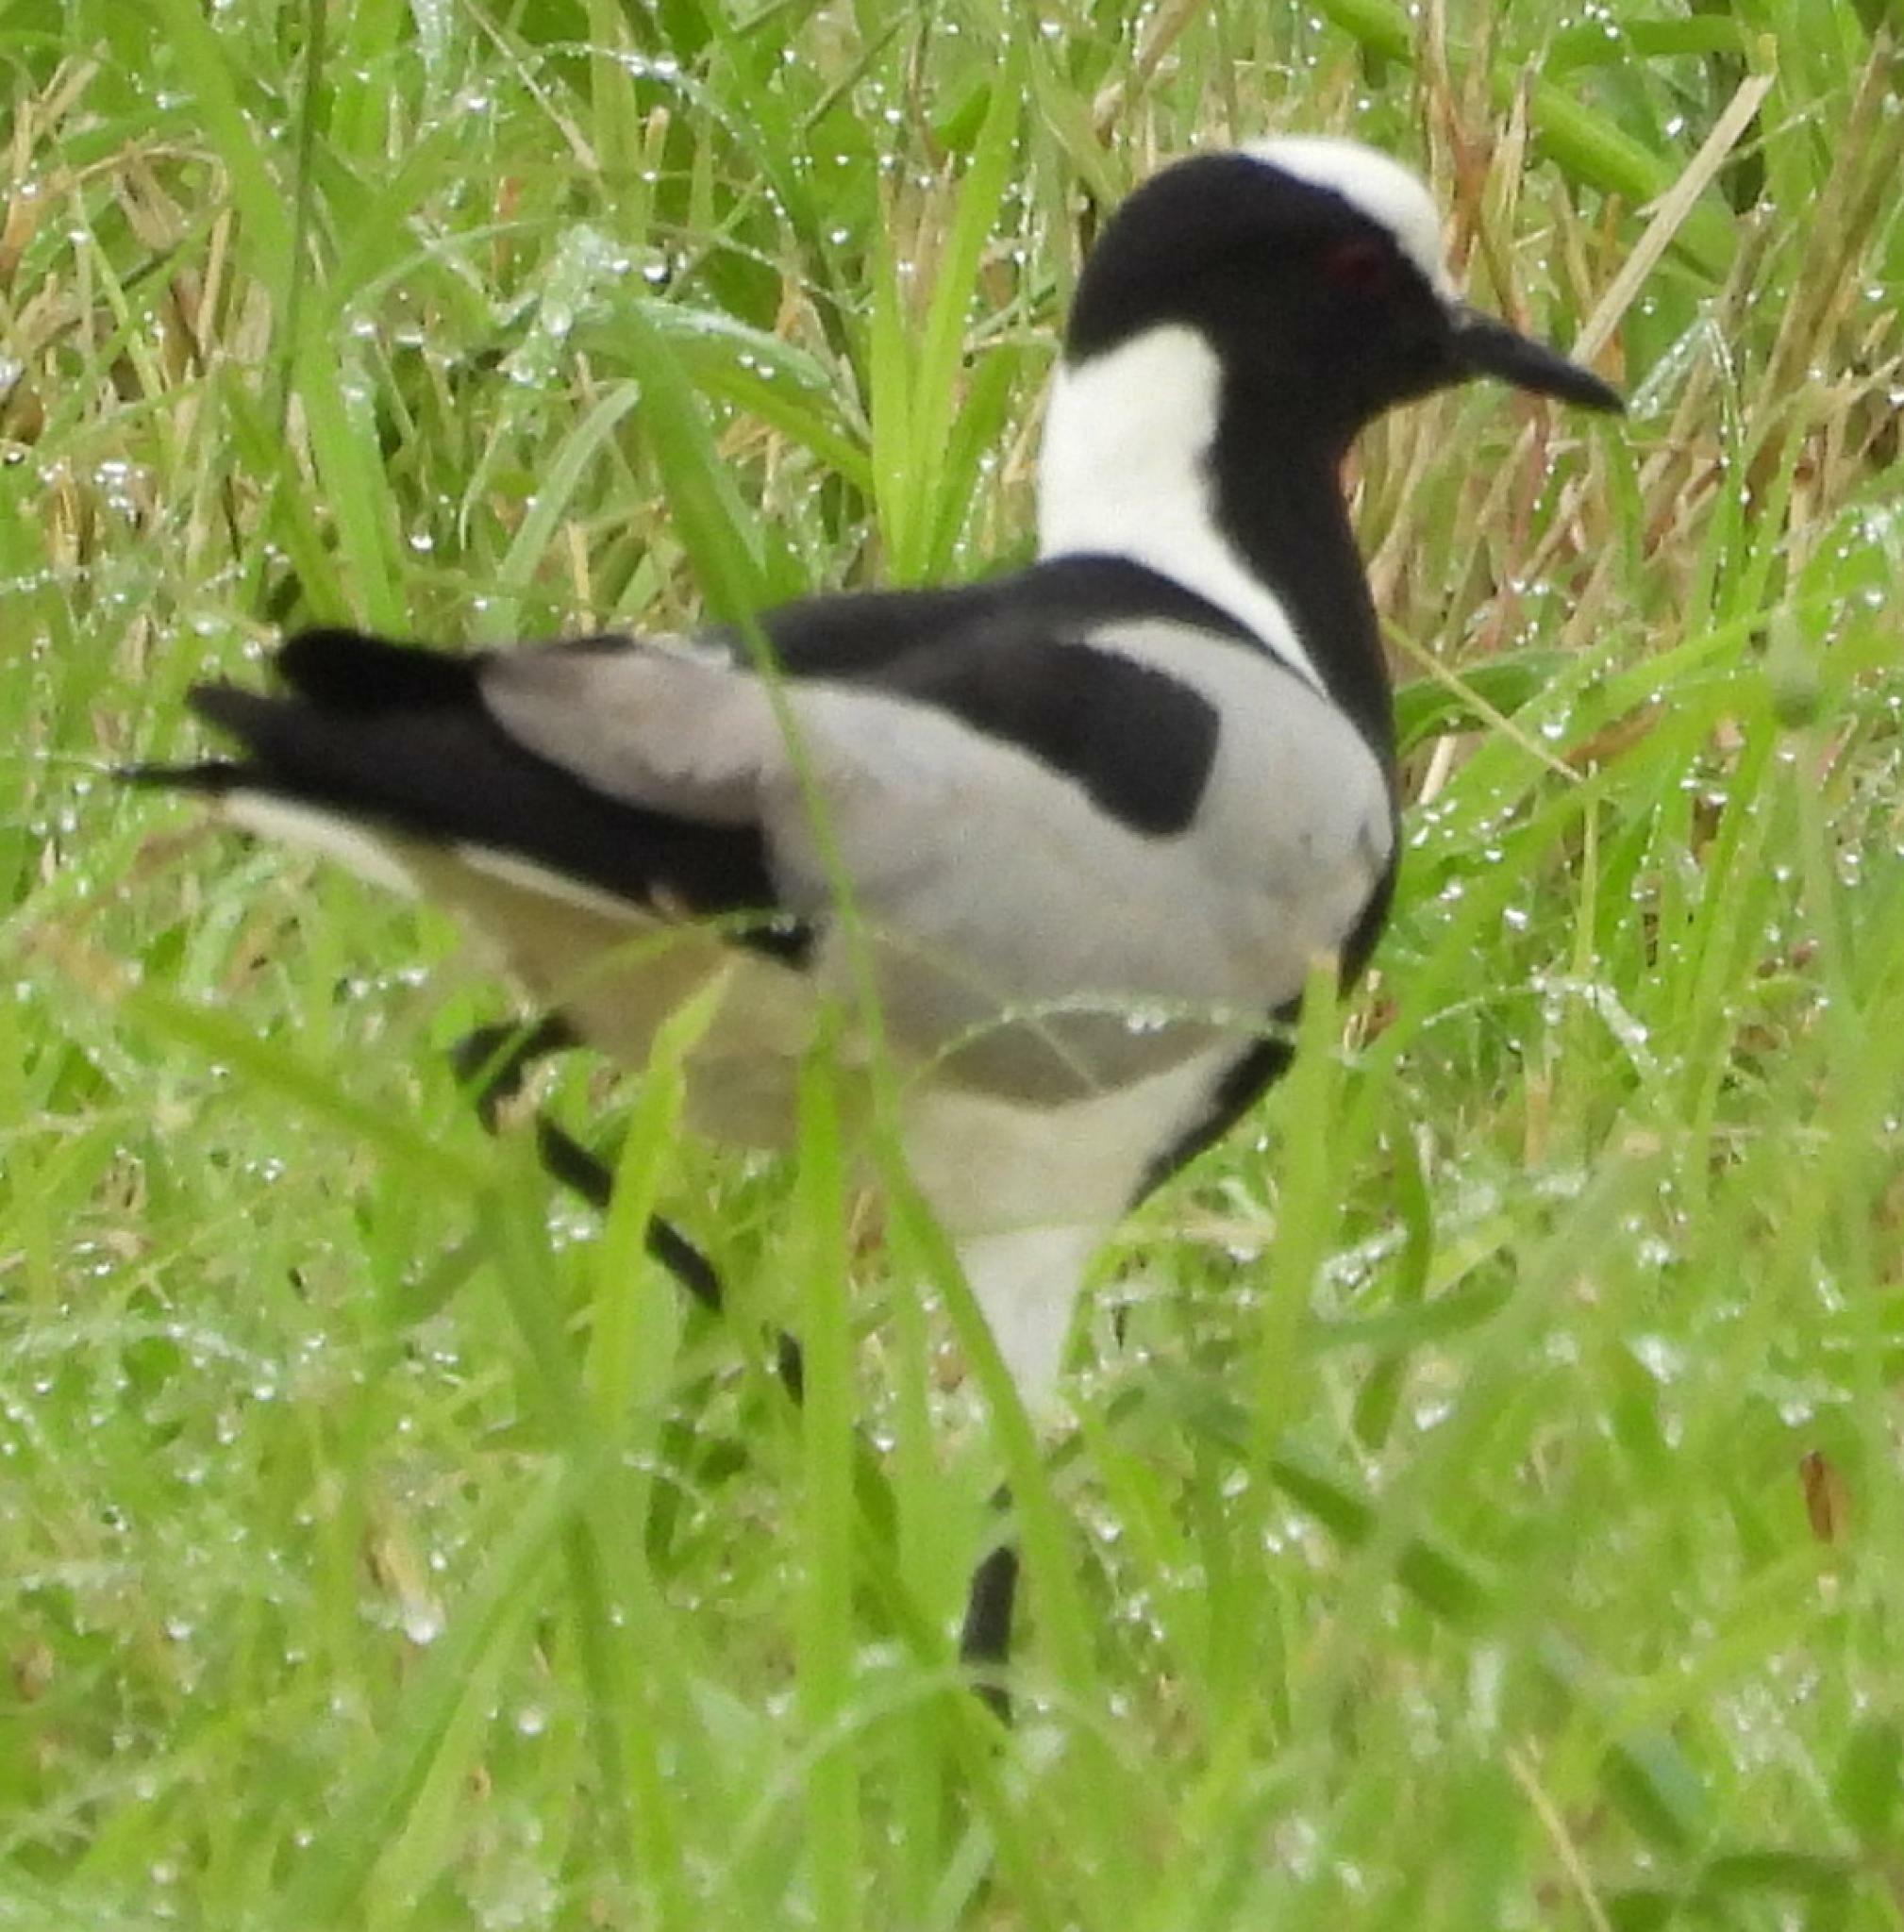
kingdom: Animalia
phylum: Chordata
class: Aves
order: Charadriiformes
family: Charadriidae
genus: Vanellus
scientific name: Vanellus armatus
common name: Blacksmith lapwing
